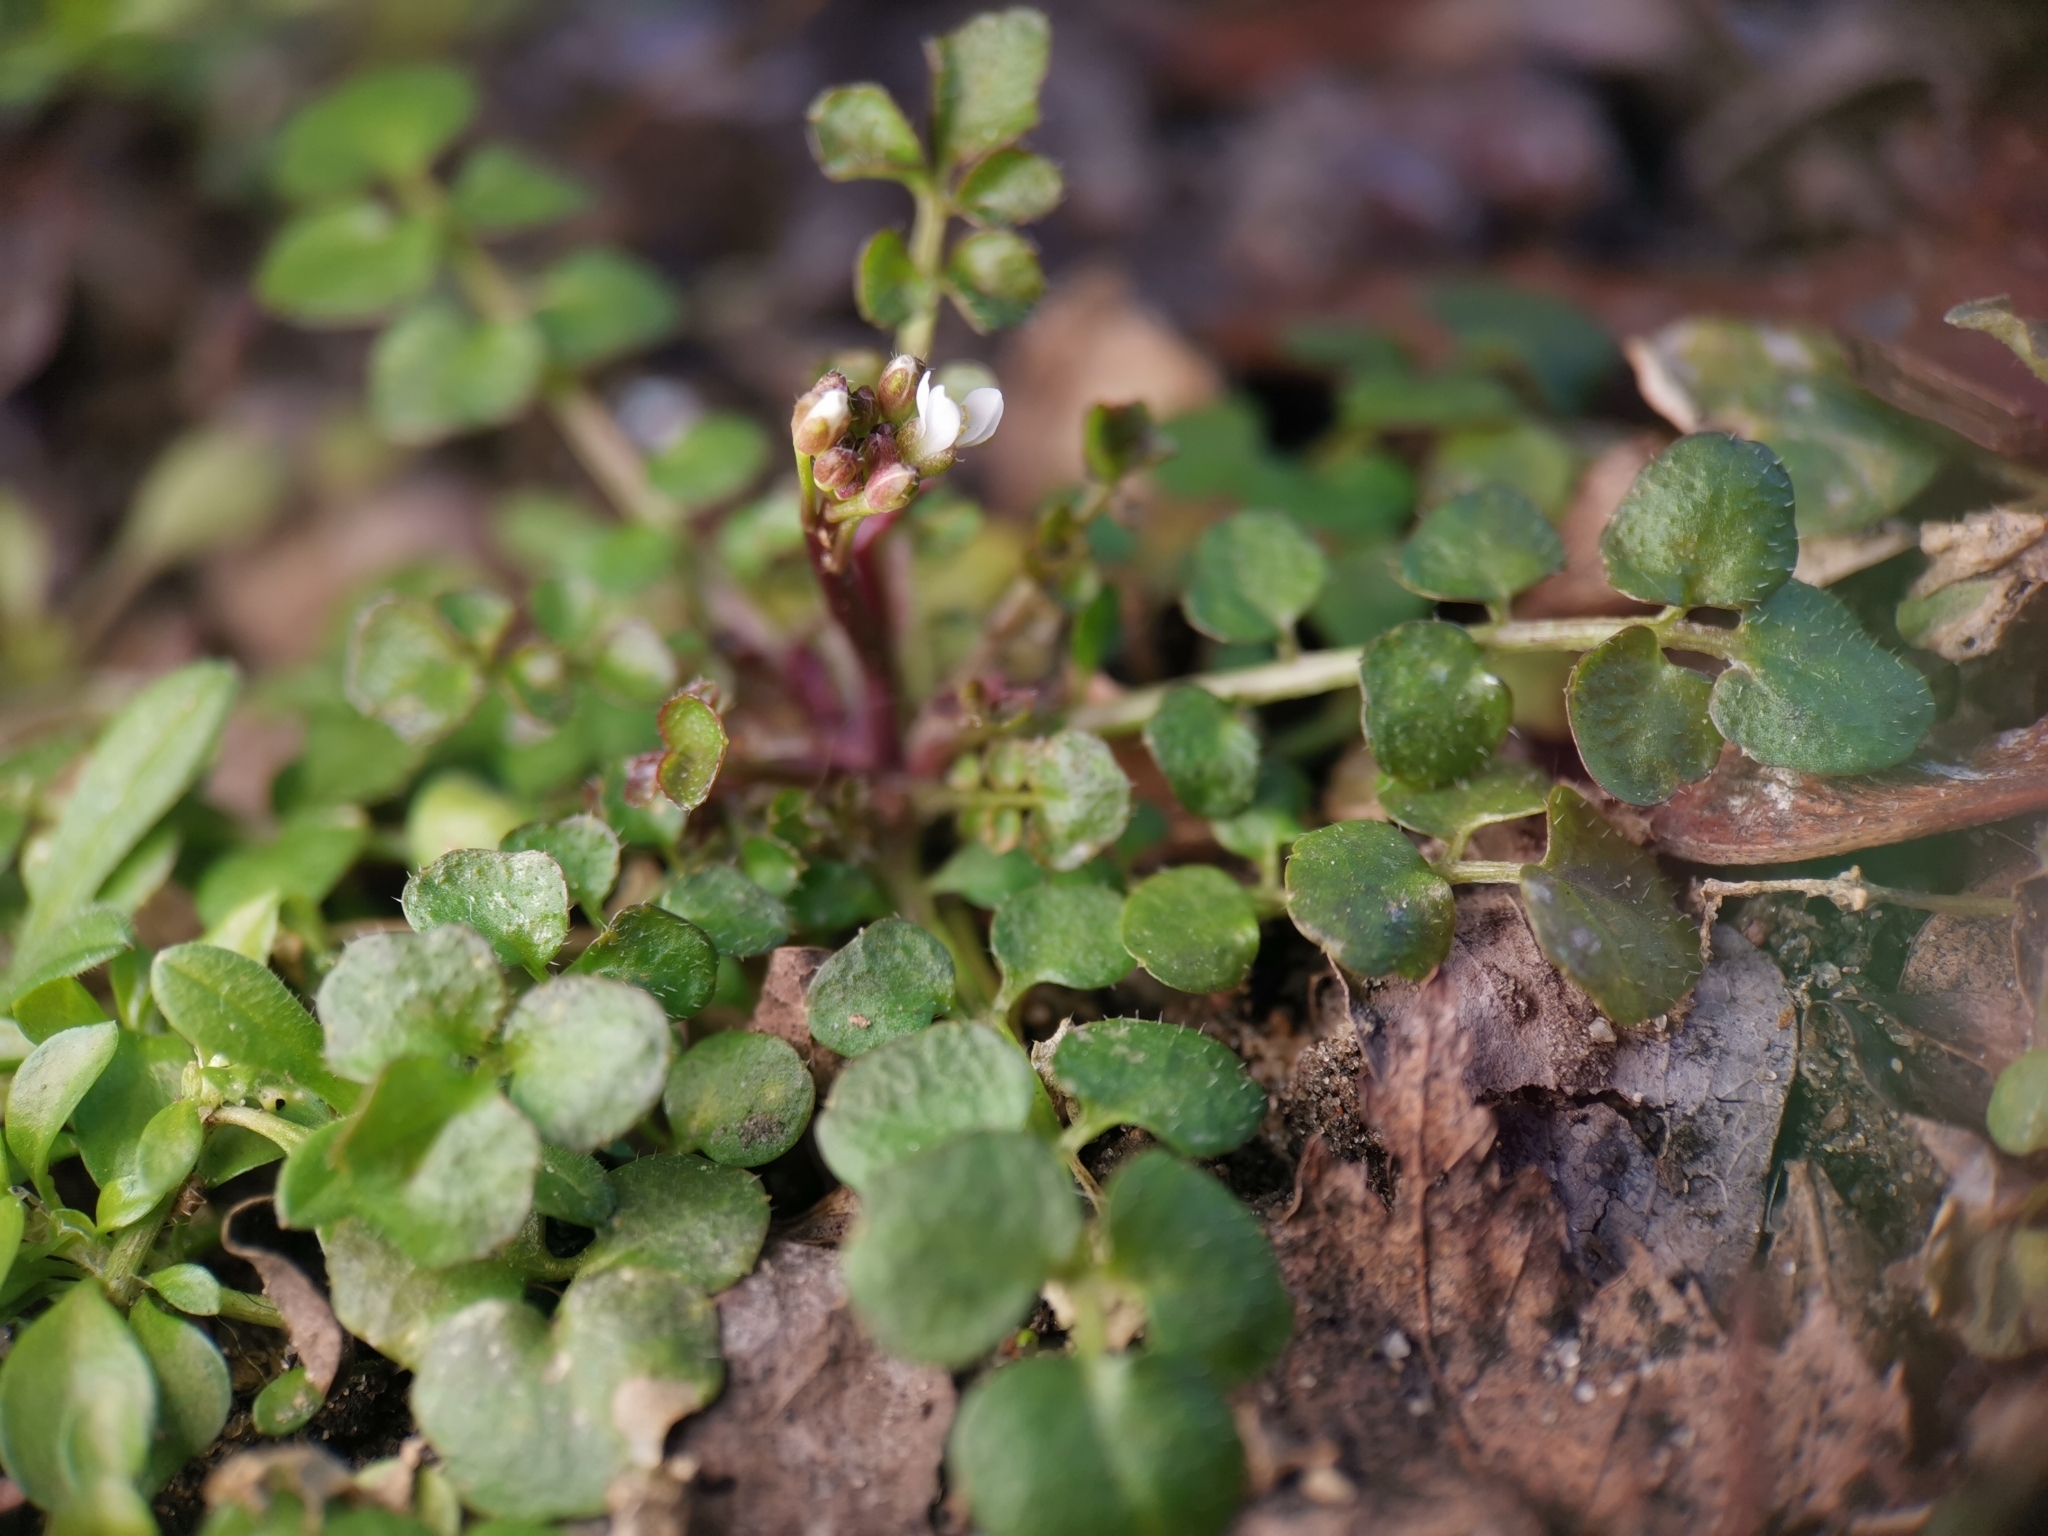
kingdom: Plantae
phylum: Tracheophyta
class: Magnoliopsida
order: Brassicales
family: Brassicaceae
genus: Cardamine
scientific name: Cardamine hirsuta
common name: Hairy bittercress
